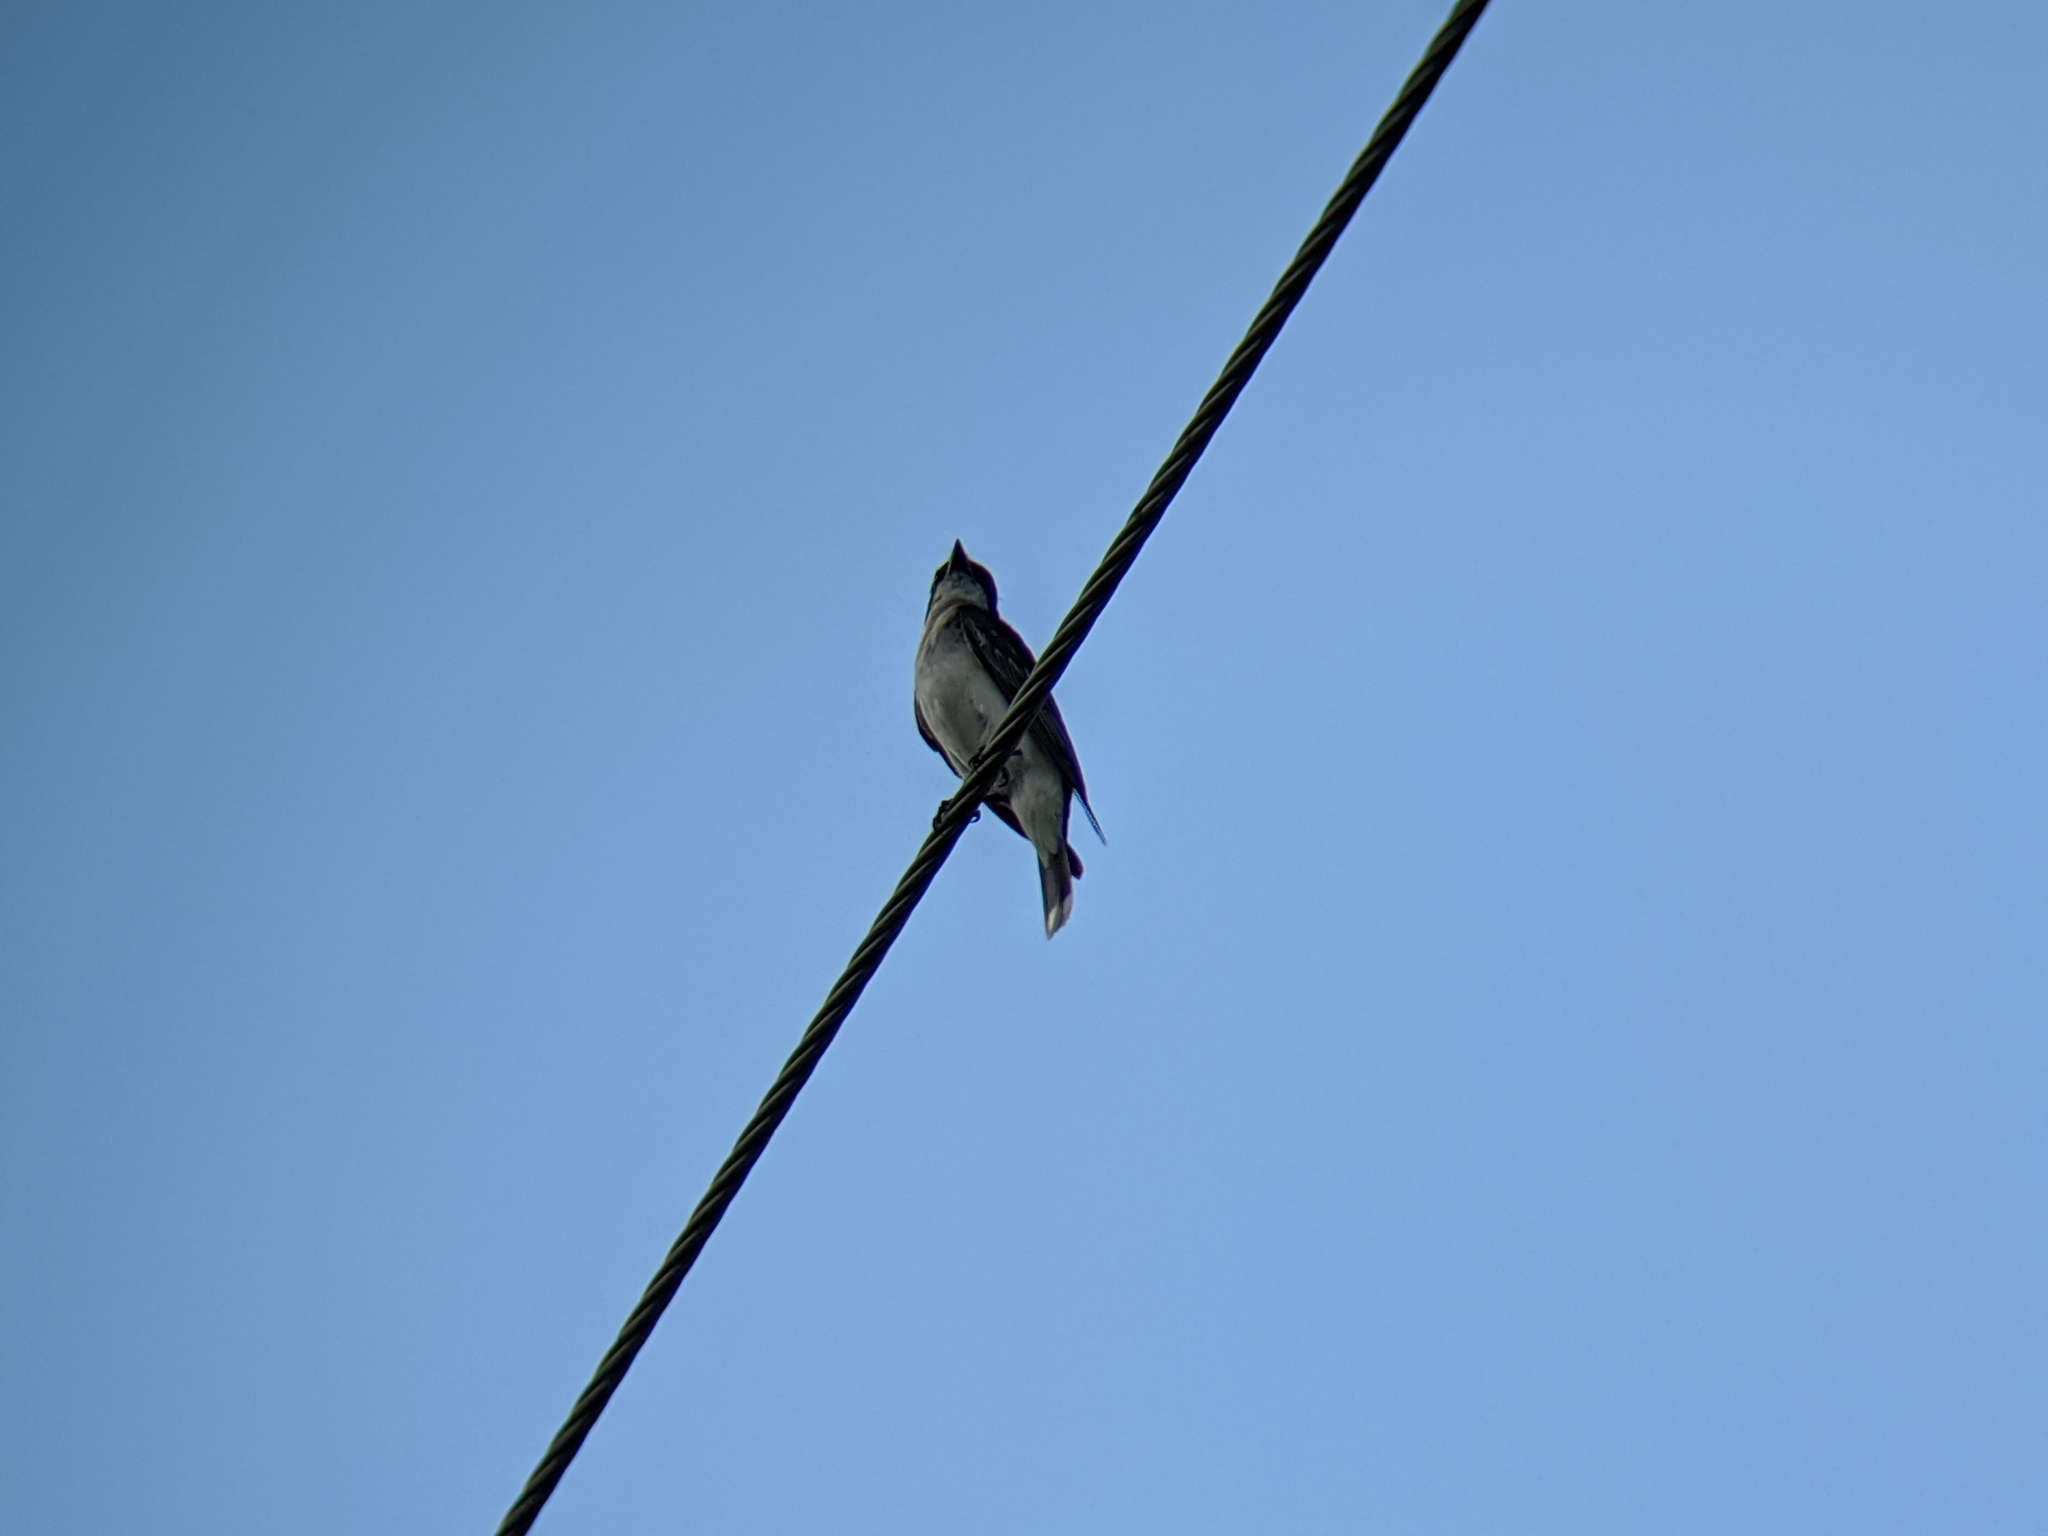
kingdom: Animalia
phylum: Chordata
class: Aves
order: Passeriformes
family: Tyrannidae
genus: Tyrannus
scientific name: Tyrannus tyrannus
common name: Eastern kingbird
